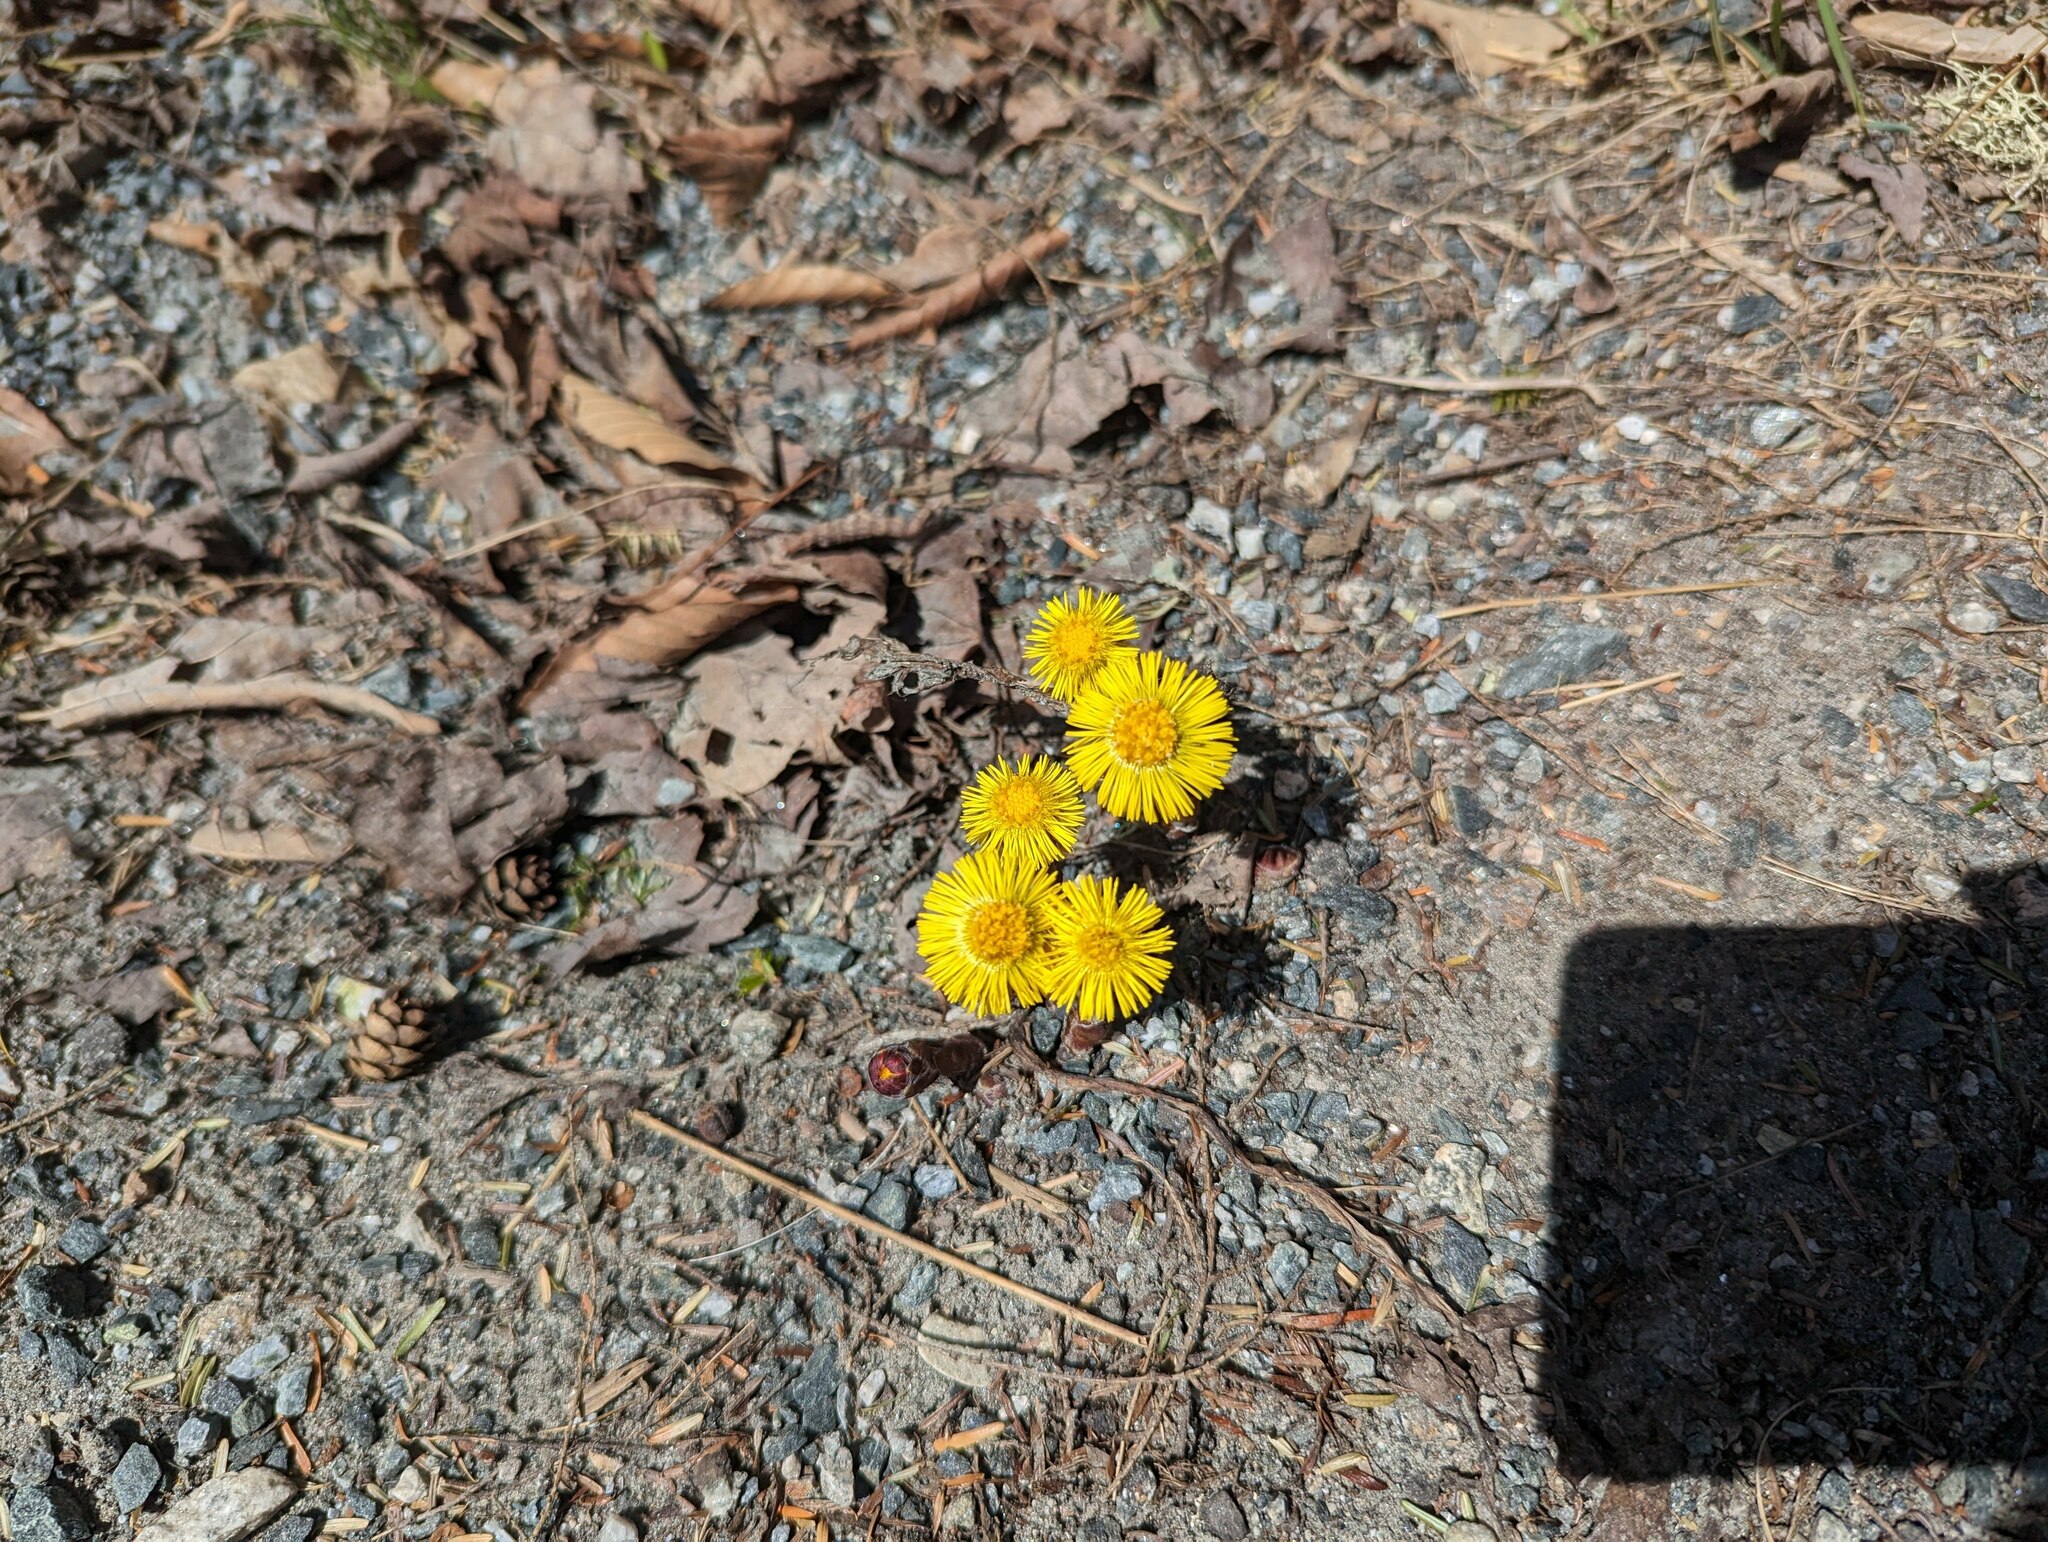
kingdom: Plantae
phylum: Tracheophyta
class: Magnoliopsida
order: Asterales
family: Asteraceae
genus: Tussilago
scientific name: Tussilago farfara
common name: Coltsfoot
